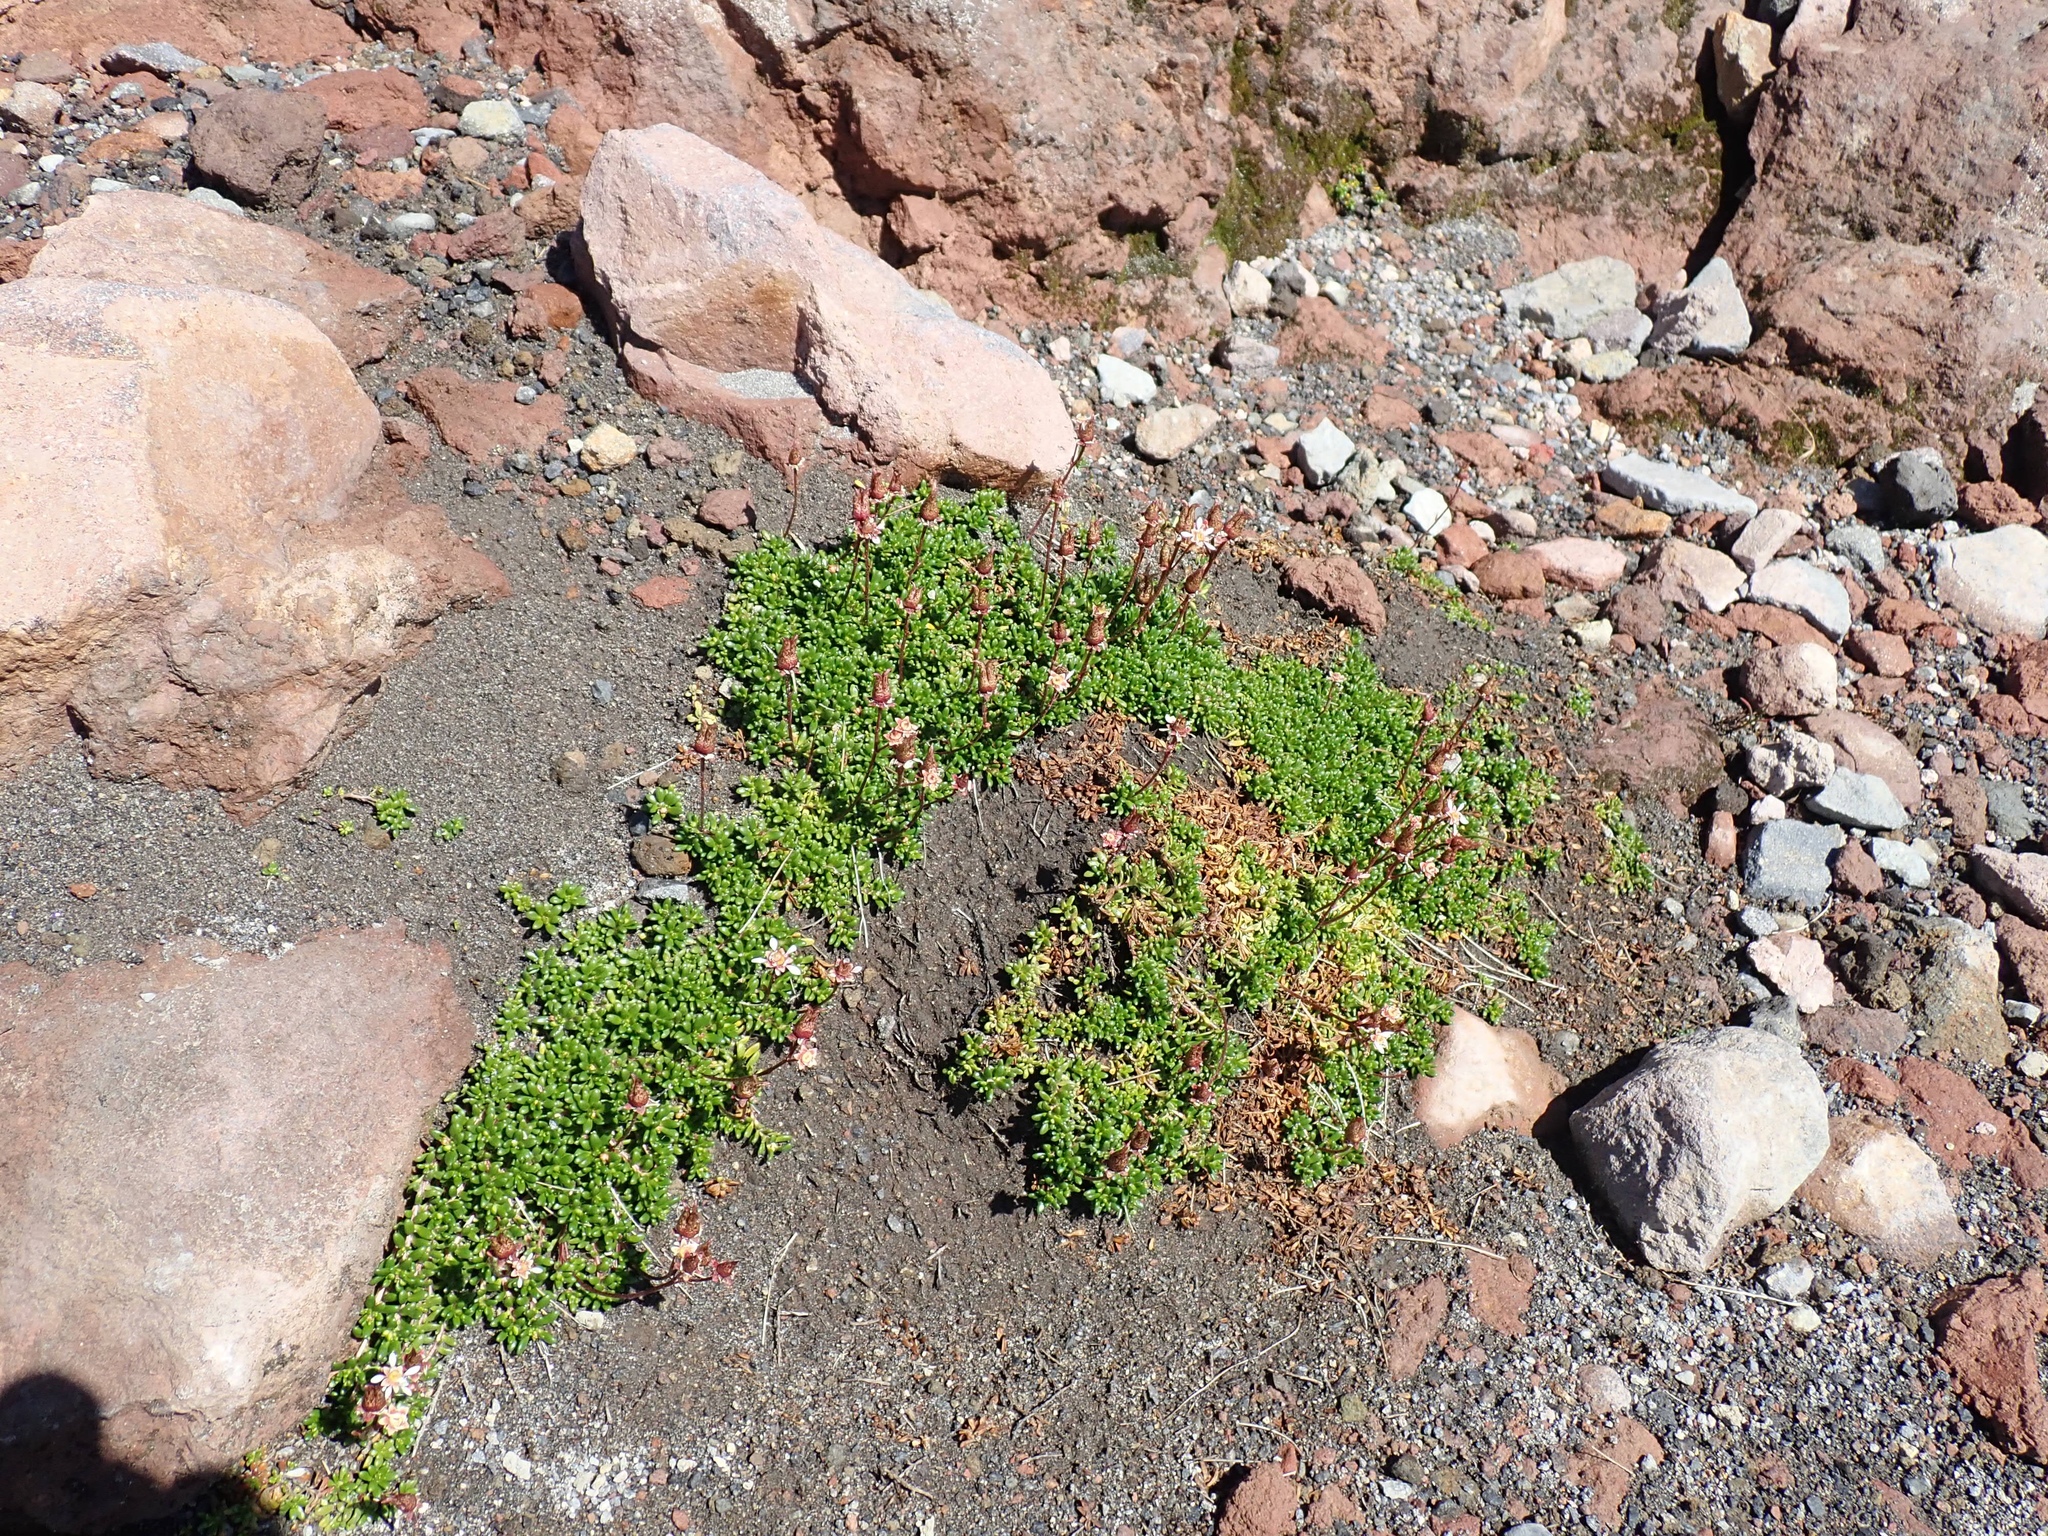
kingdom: Plantae
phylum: Tracheophyta
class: Magnoliopsida
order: Saxifragales
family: Saxifragaceae
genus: Micranthes
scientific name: Micranthes tolmiei
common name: Tolmie's saxifrage
